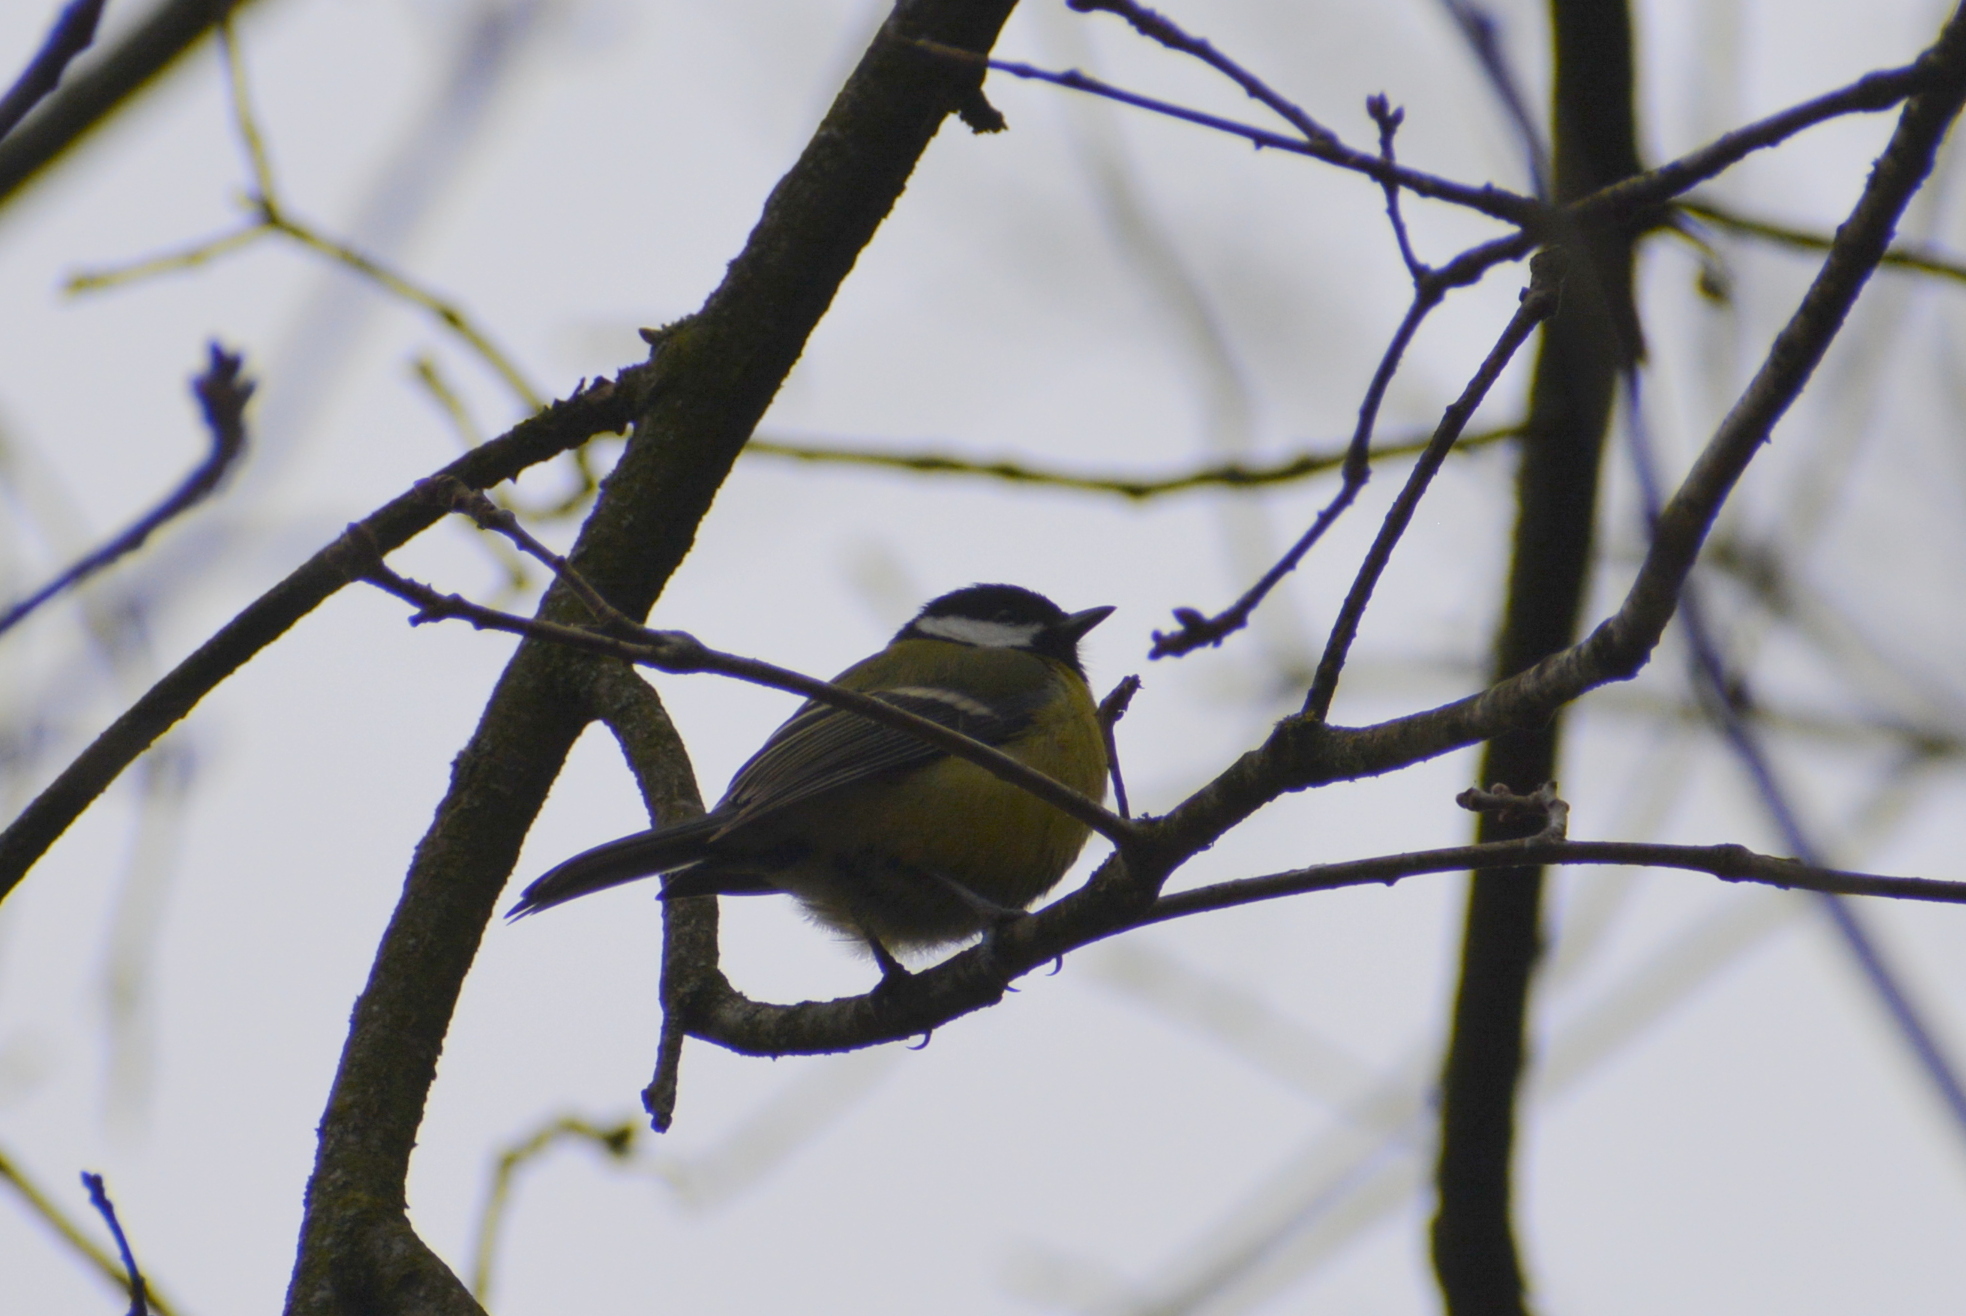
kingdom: Animalia
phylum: Chordata
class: Aves
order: Passeriformes
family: Paridae
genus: Parus
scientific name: Parus major
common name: Great tit
